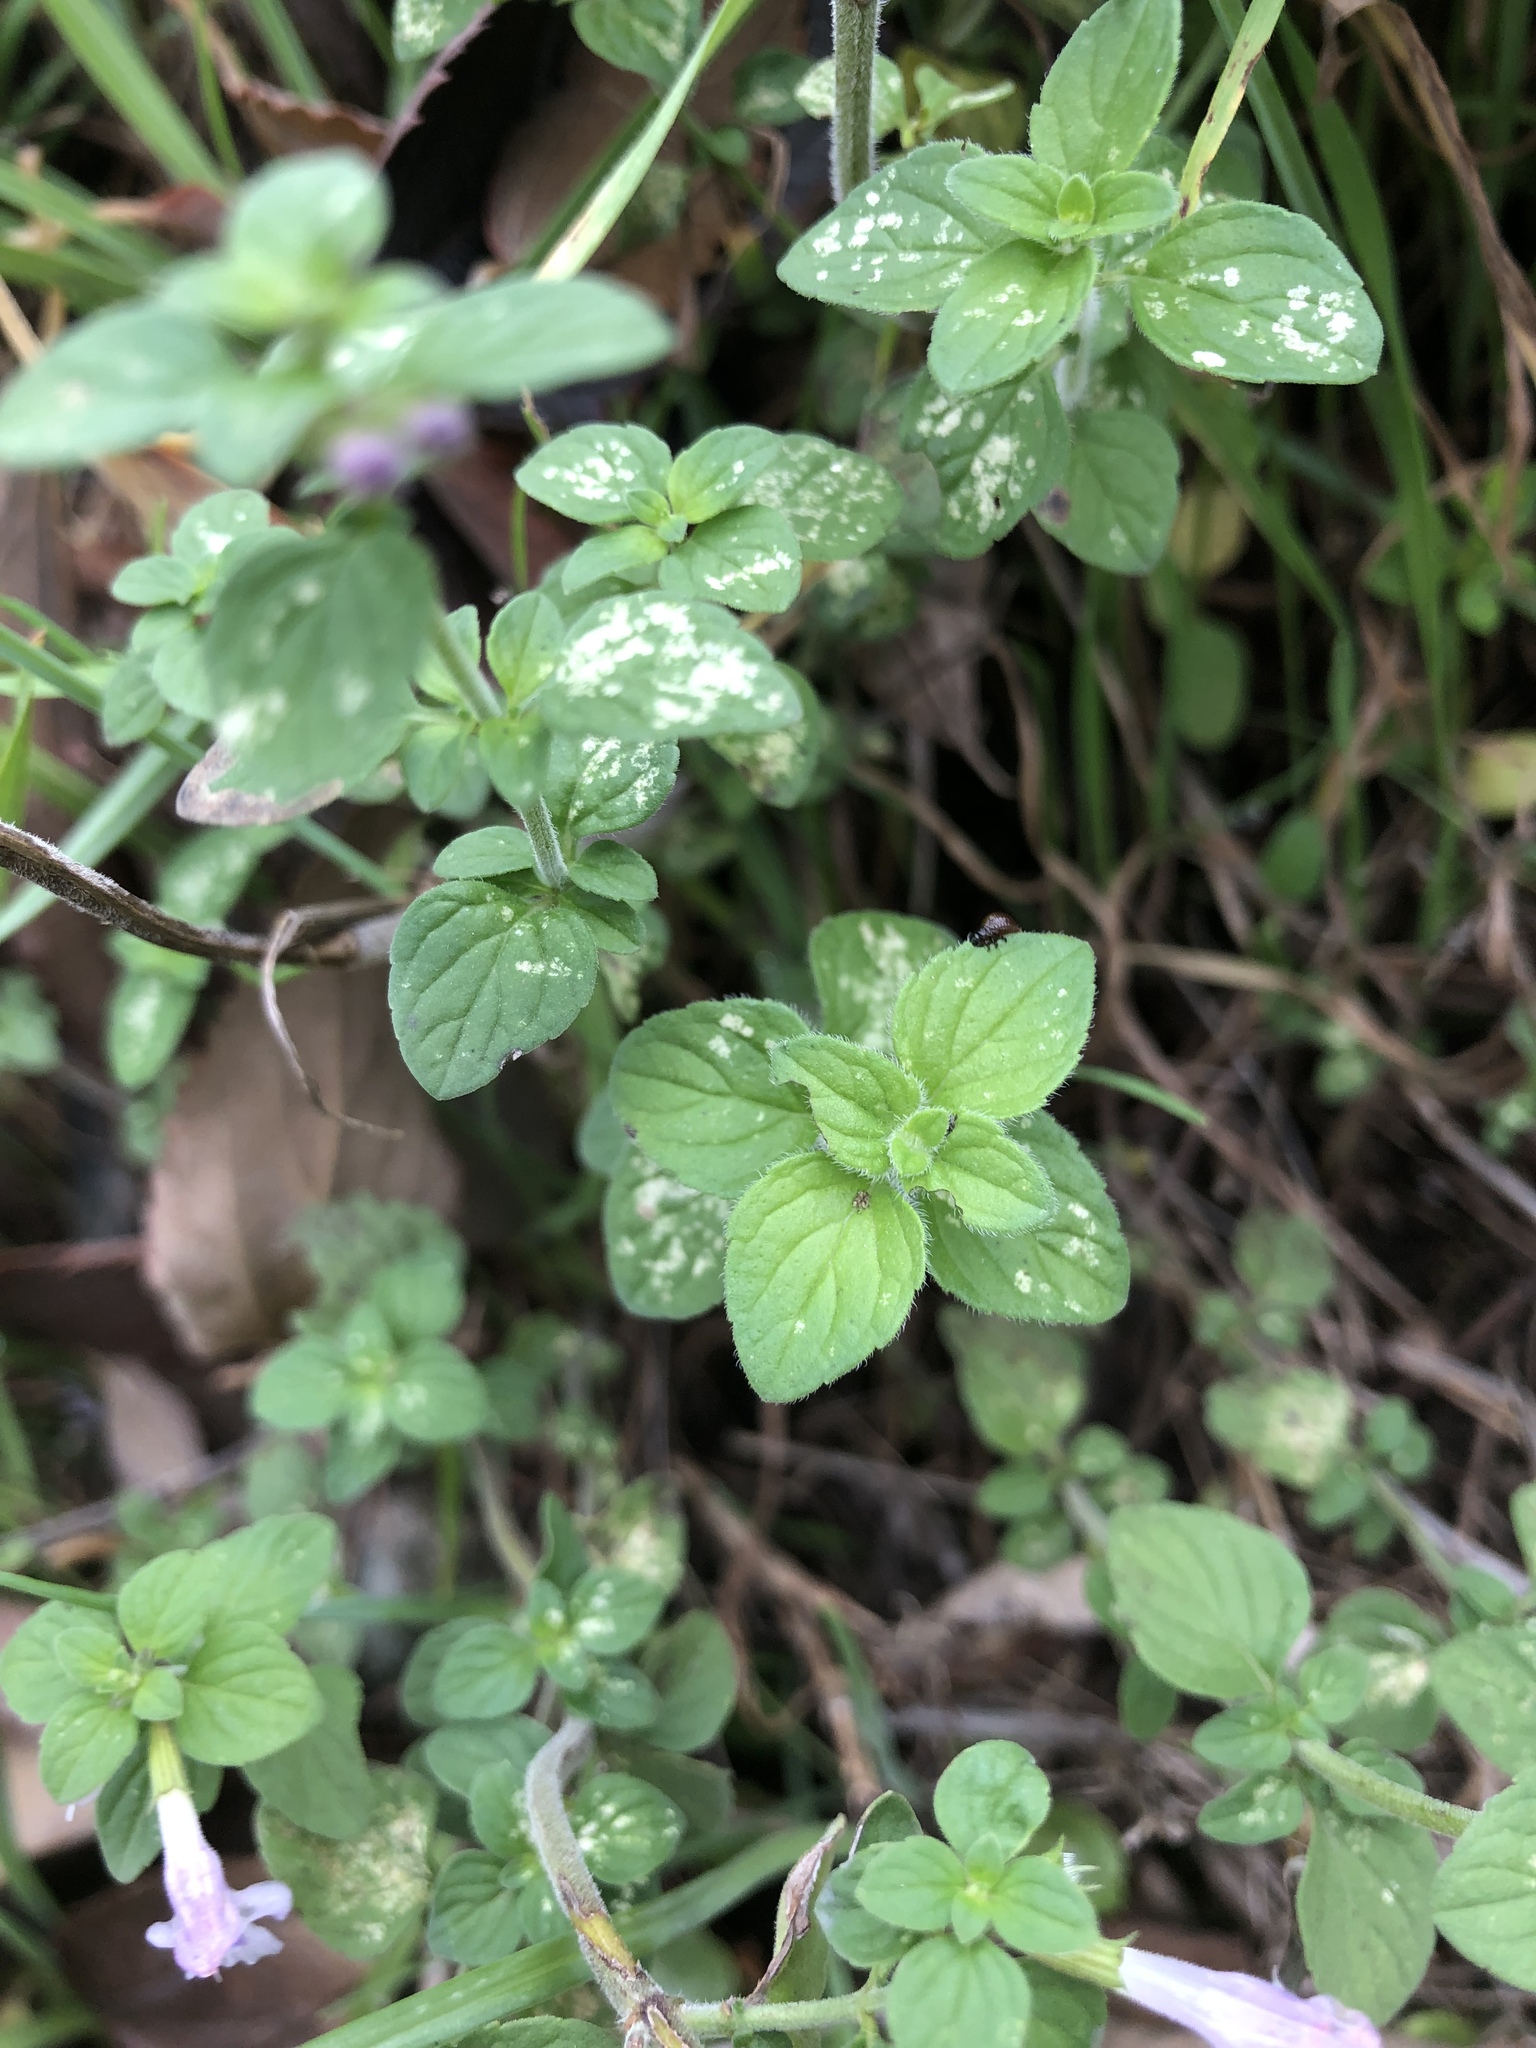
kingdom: Plantae
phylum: Tracheophyta
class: Magnoliopsida
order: Lamiales
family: Lamiaceae
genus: Clinopodium
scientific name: Clinopodium nepeta
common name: Lesser calamint
